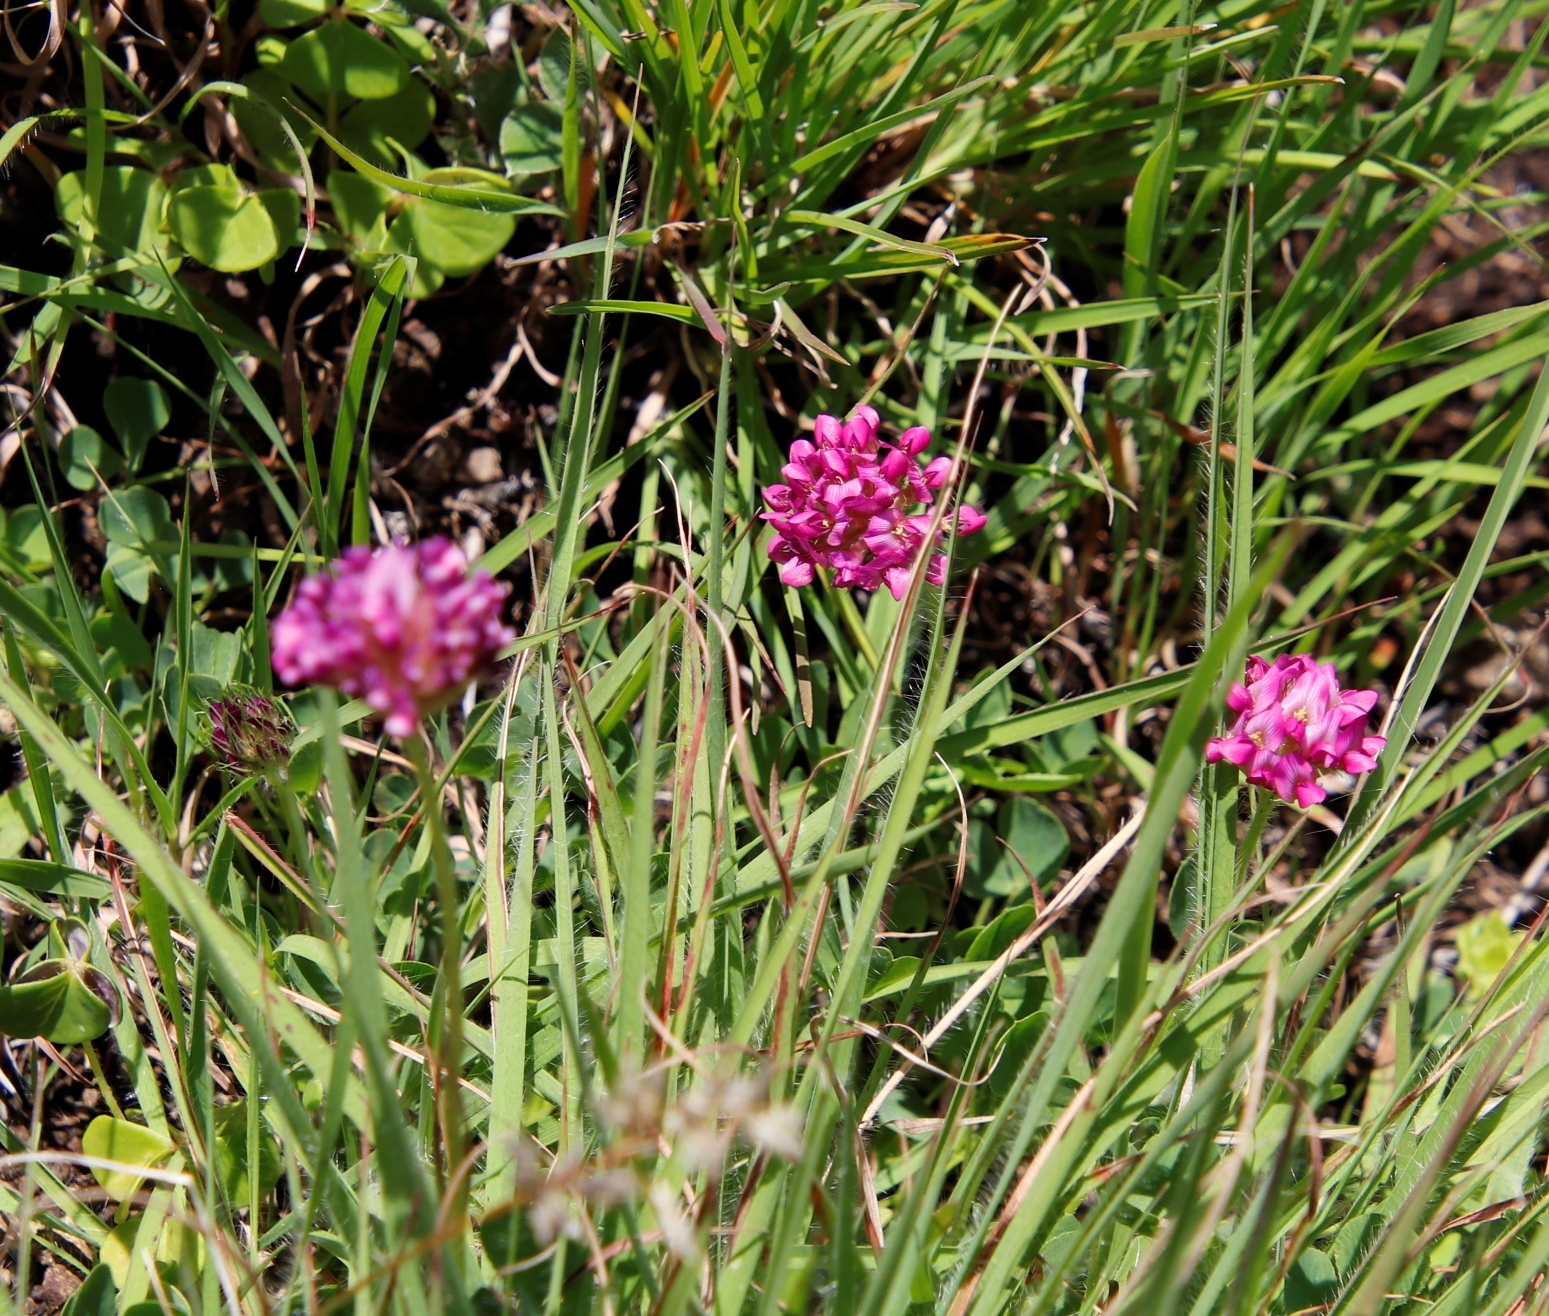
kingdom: Plantae
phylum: Tracheophyta
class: Magnoliopsida
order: Fabales
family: Fabaceae
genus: Trifolium
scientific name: Trifolium africanum
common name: Erasmus clover
